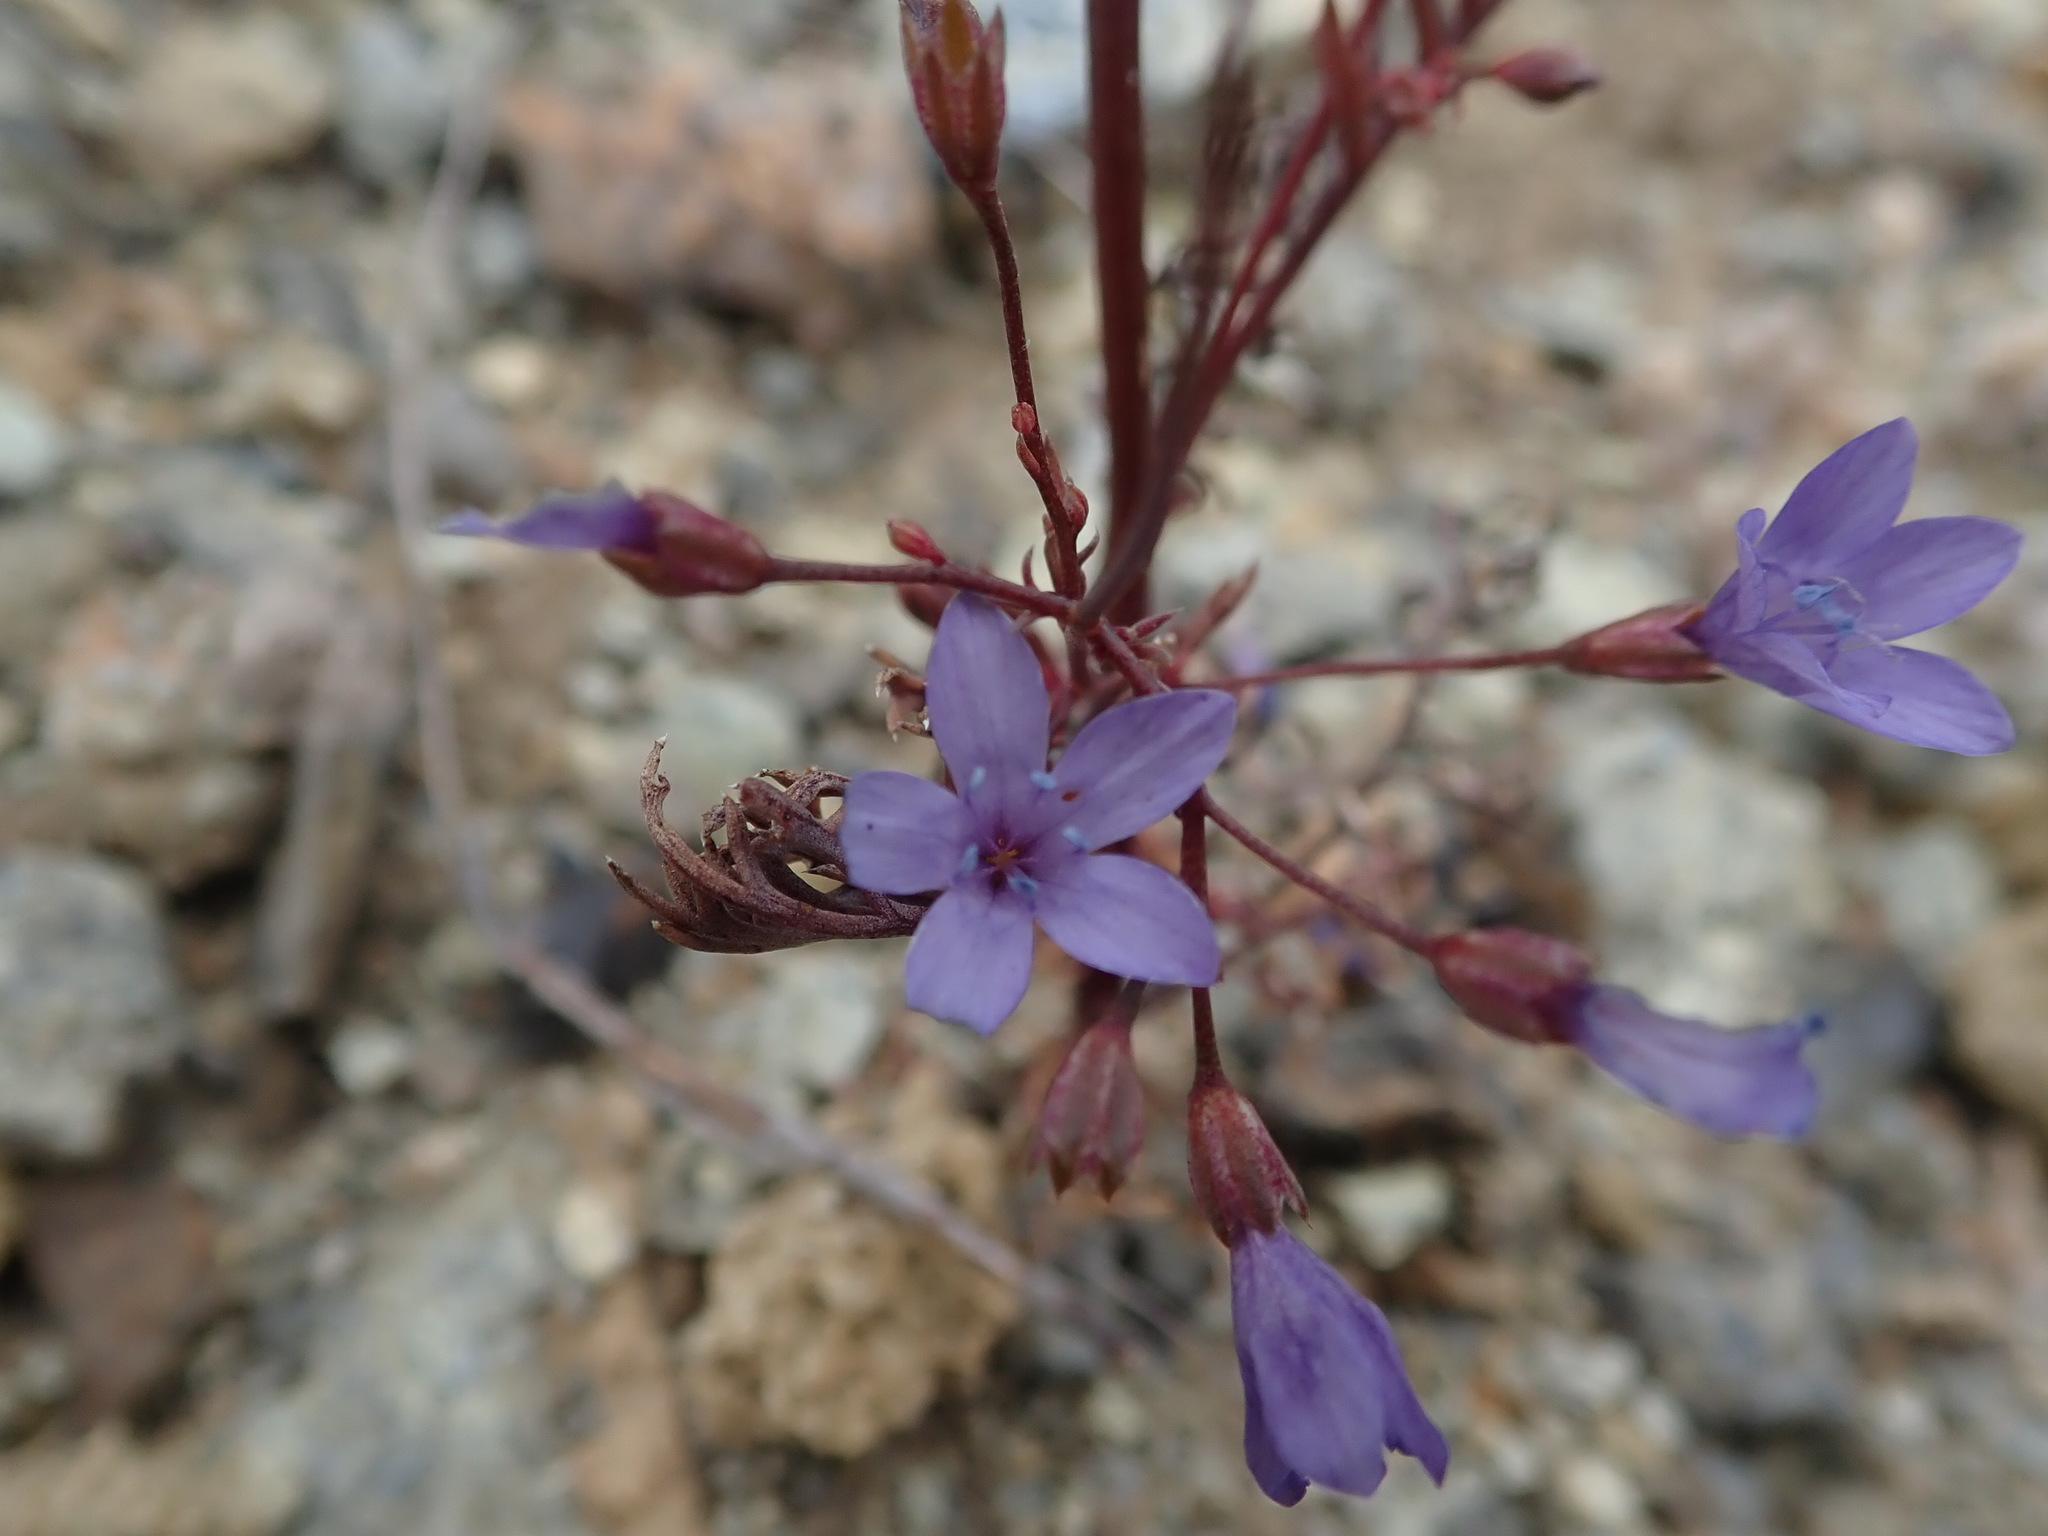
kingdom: Plantae
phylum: Tracheophyta
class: Magnoliopsida
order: Ericales
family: Polemoniaceae
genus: Gilia
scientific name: Gilia achilleifolia
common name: California gily-flower
